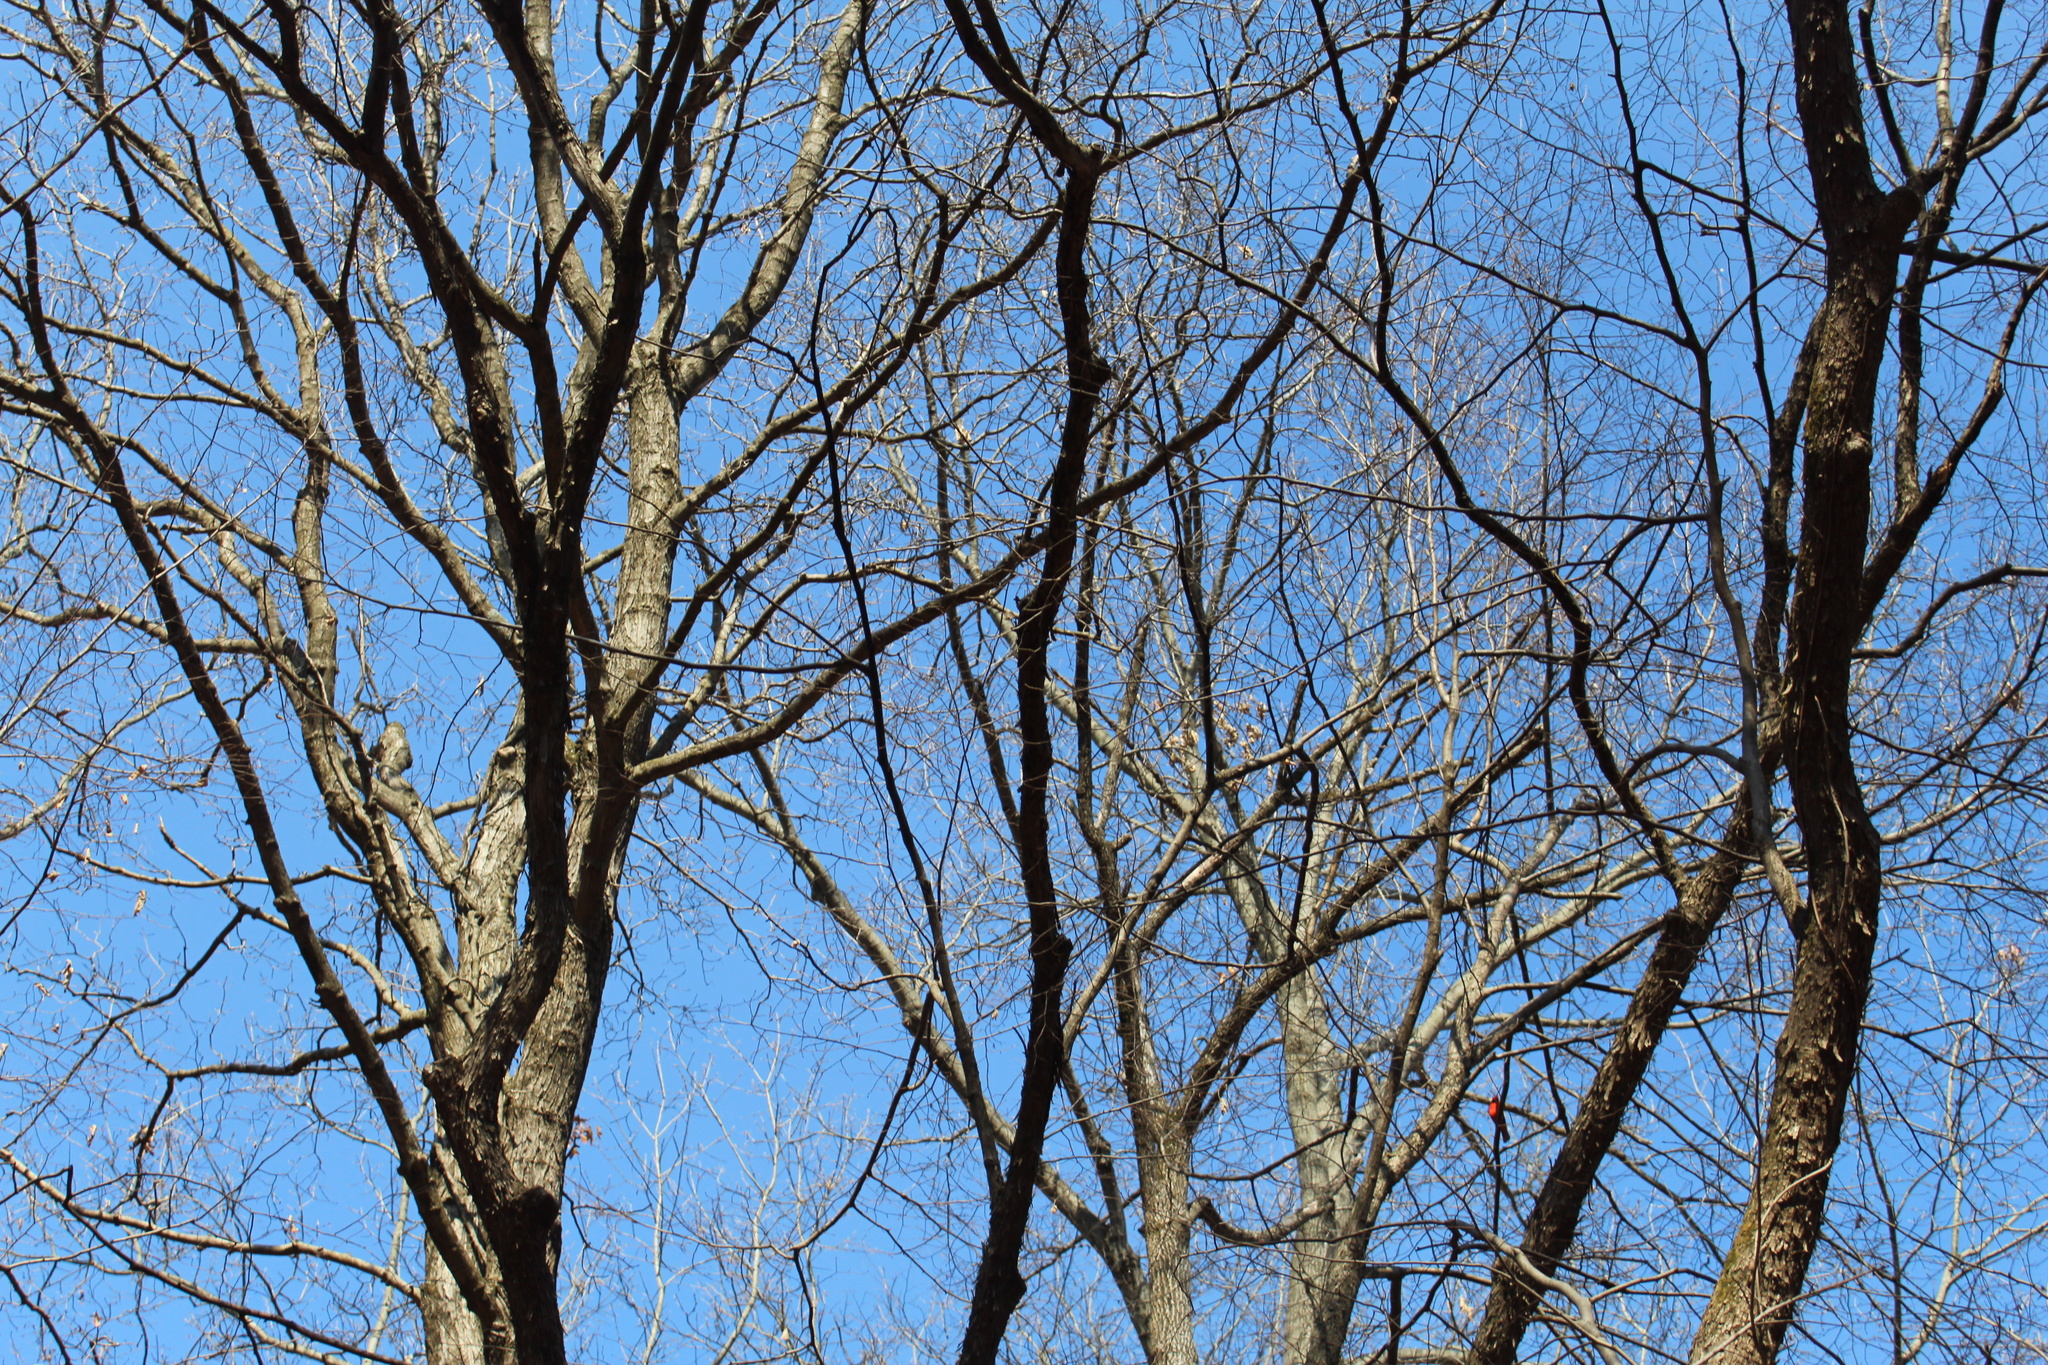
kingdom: Animalia
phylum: Chordata
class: Aves
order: Passeriformes
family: Cardinalidae
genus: Cardinalis
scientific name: Cardinalis cardinalis
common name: Northern cardinal
